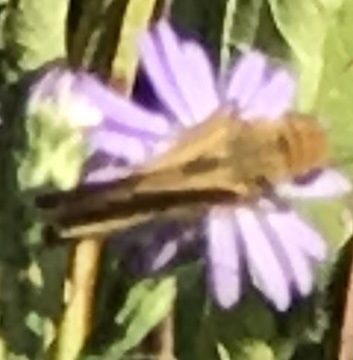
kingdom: Animalia
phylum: Arthropoda
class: Insecta
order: Lepidoptera
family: Hesperiidae
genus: Hylephila
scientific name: Hylephila phyleus
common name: Fiery skipper
